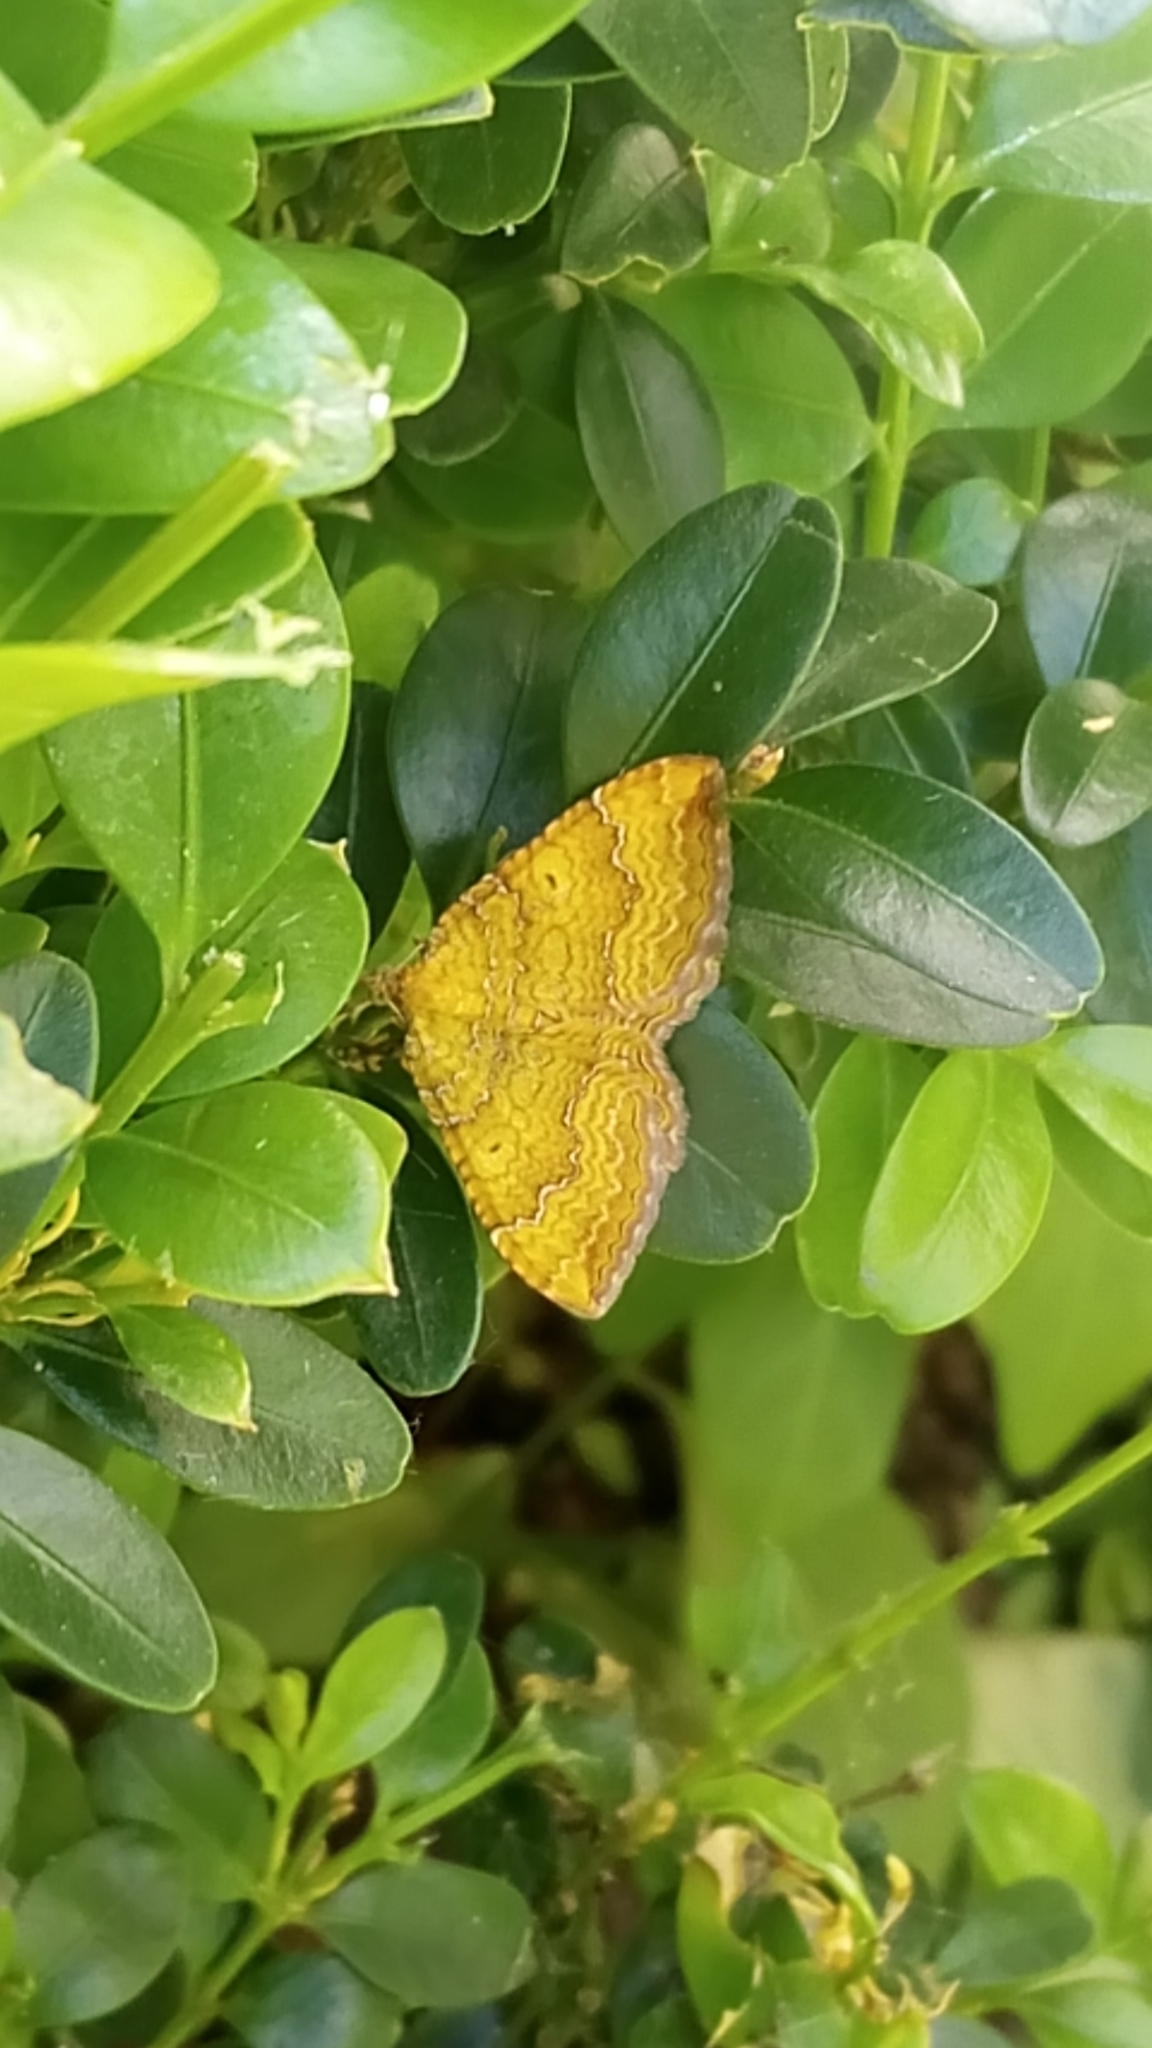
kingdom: Animalia
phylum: Arthropoda
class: Insecta
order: Lepidoptera
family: Geometridae
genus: Camptogramma
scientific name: Camptogramma bilineata
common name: Yellow shell
